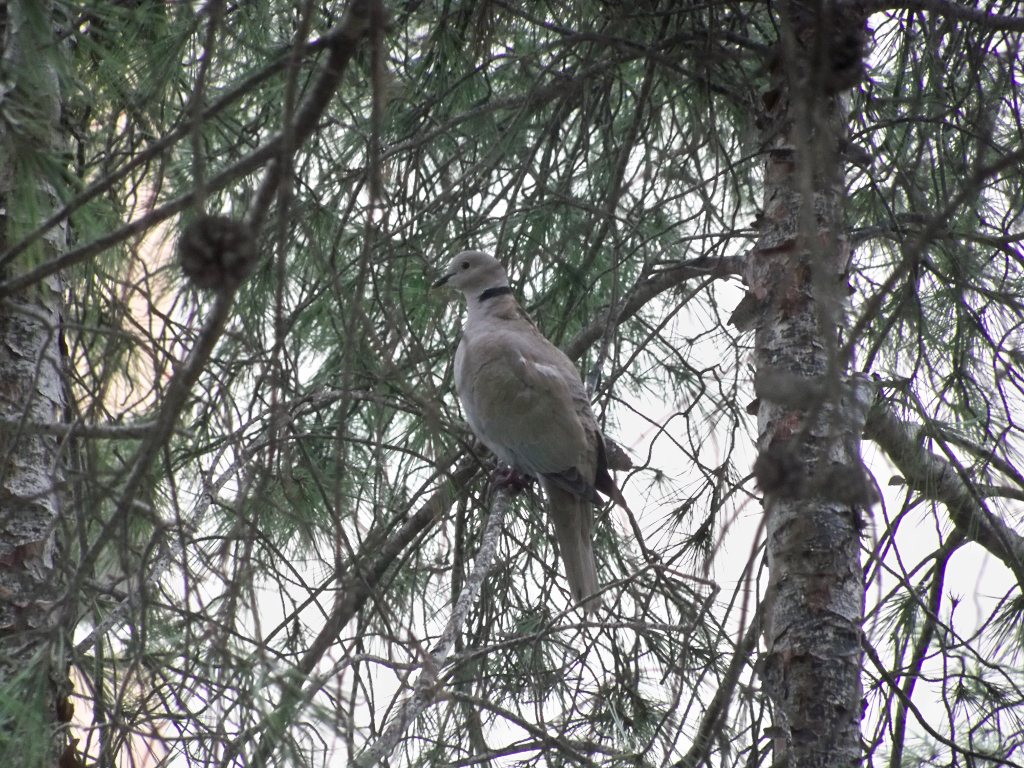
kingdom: Animalia
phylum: Chordata
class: Aves
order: Columbiformes
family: Columbidae
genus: Streptopelia
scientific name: Streptopelia decaocto
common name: Eurasian collared dove
